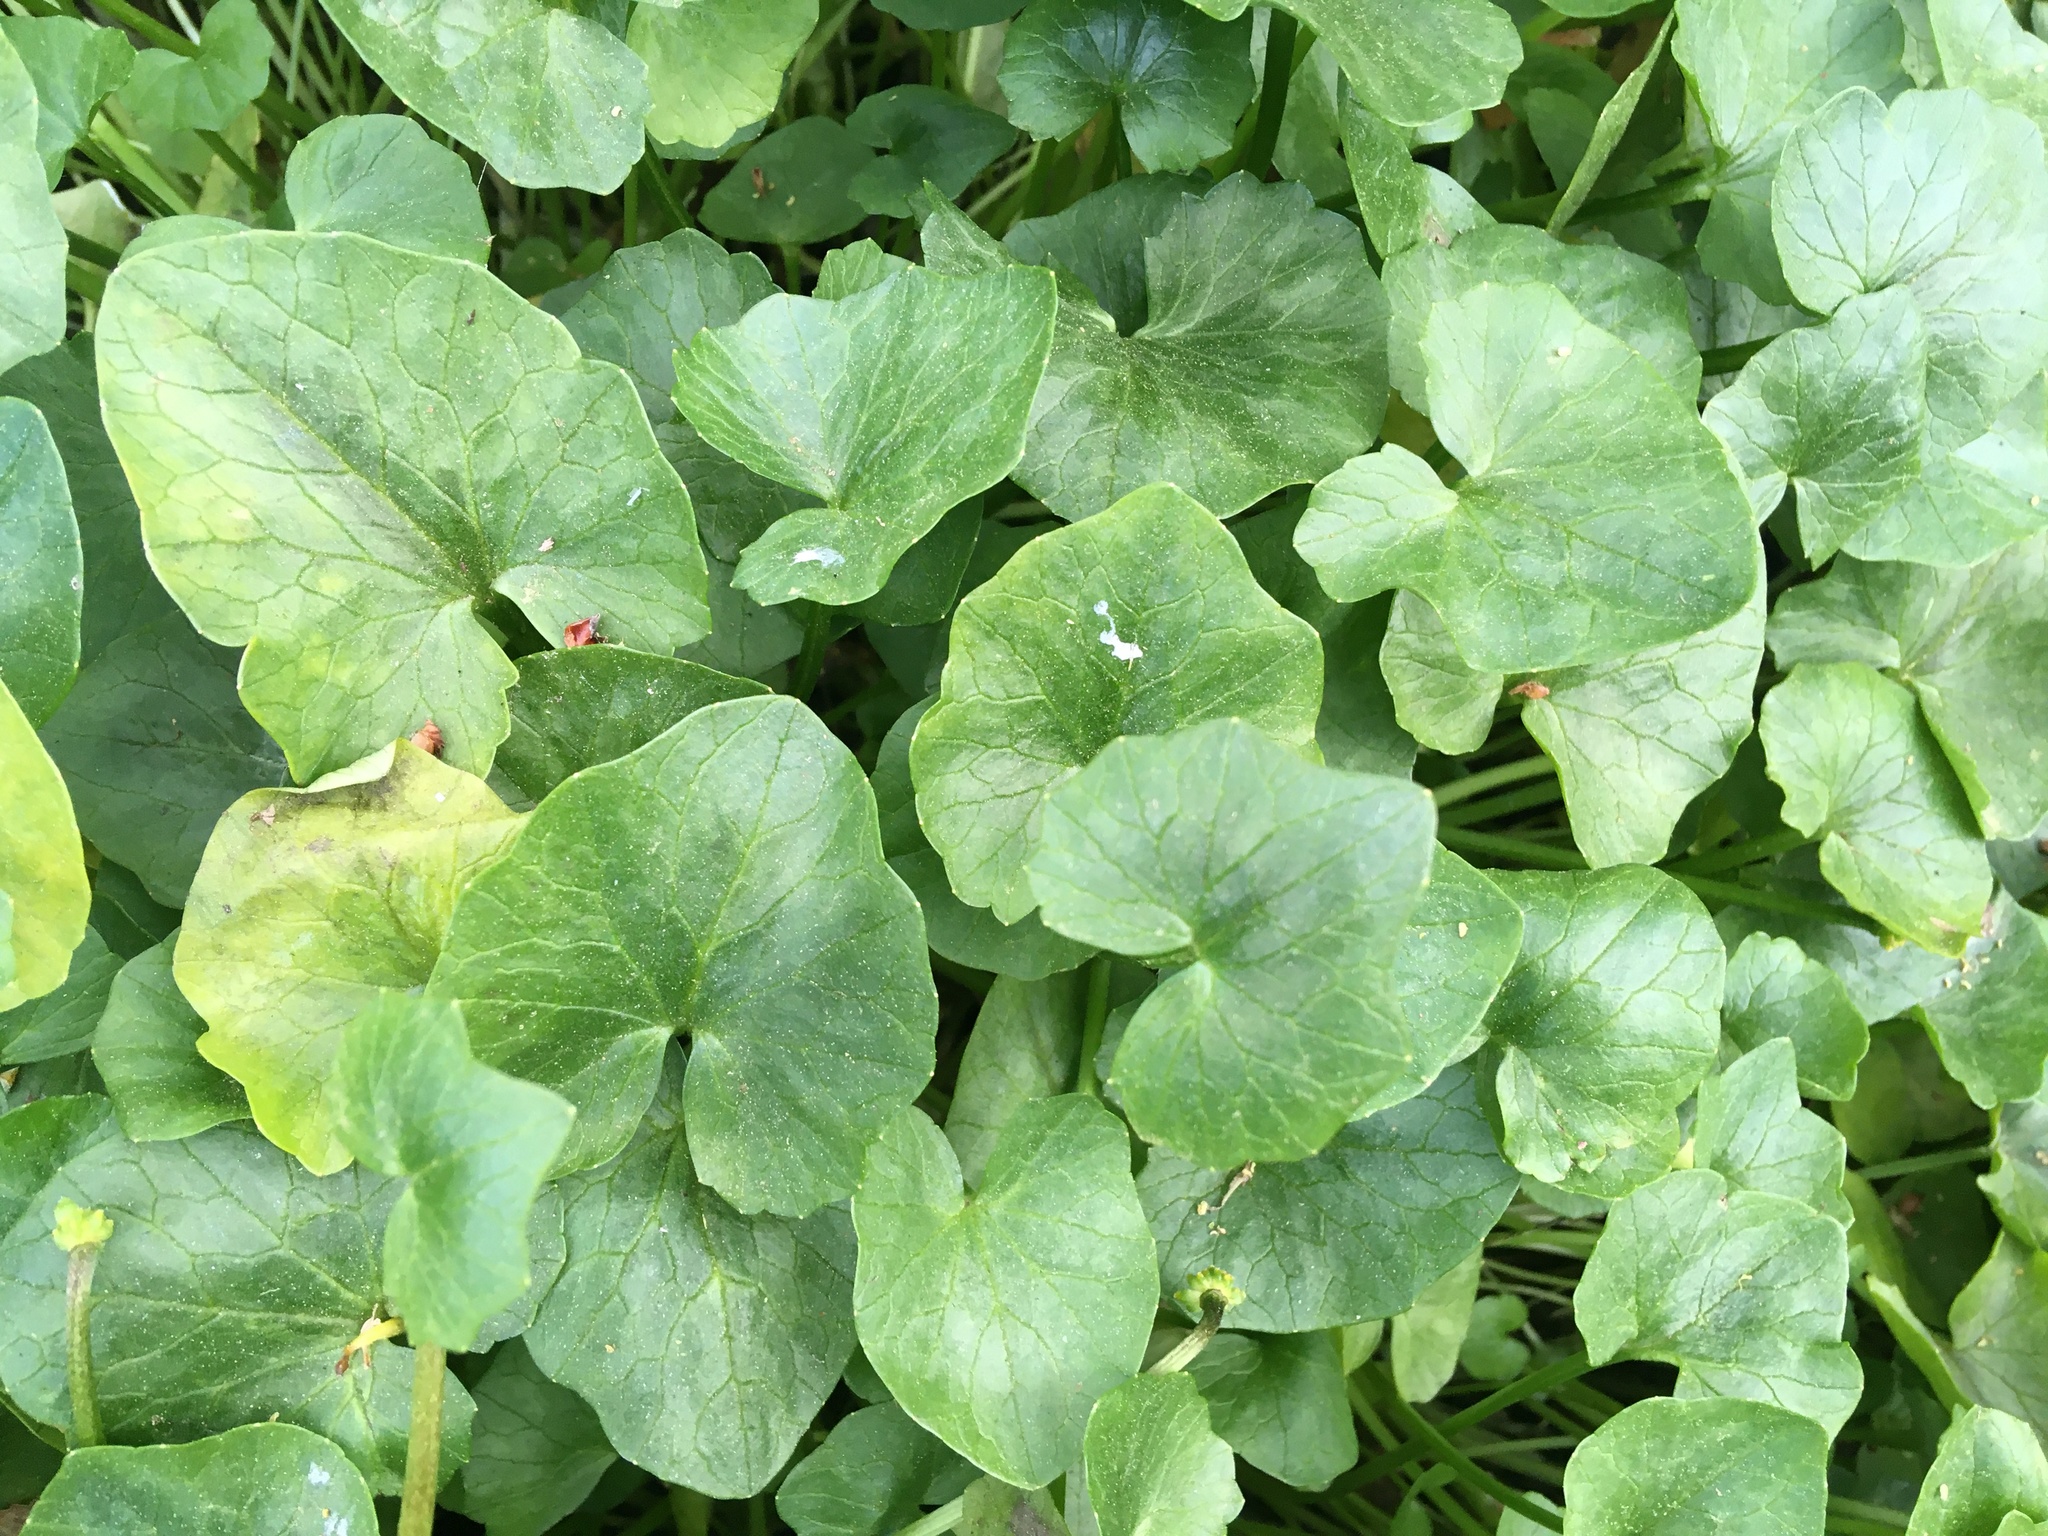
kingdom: Plantae
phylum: Tracheophyta
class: Magnoliopsida
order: Ranunculales
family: Ranunculaceae
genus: Ficaria
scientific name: Ficaria verna
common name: Lesser celandine
